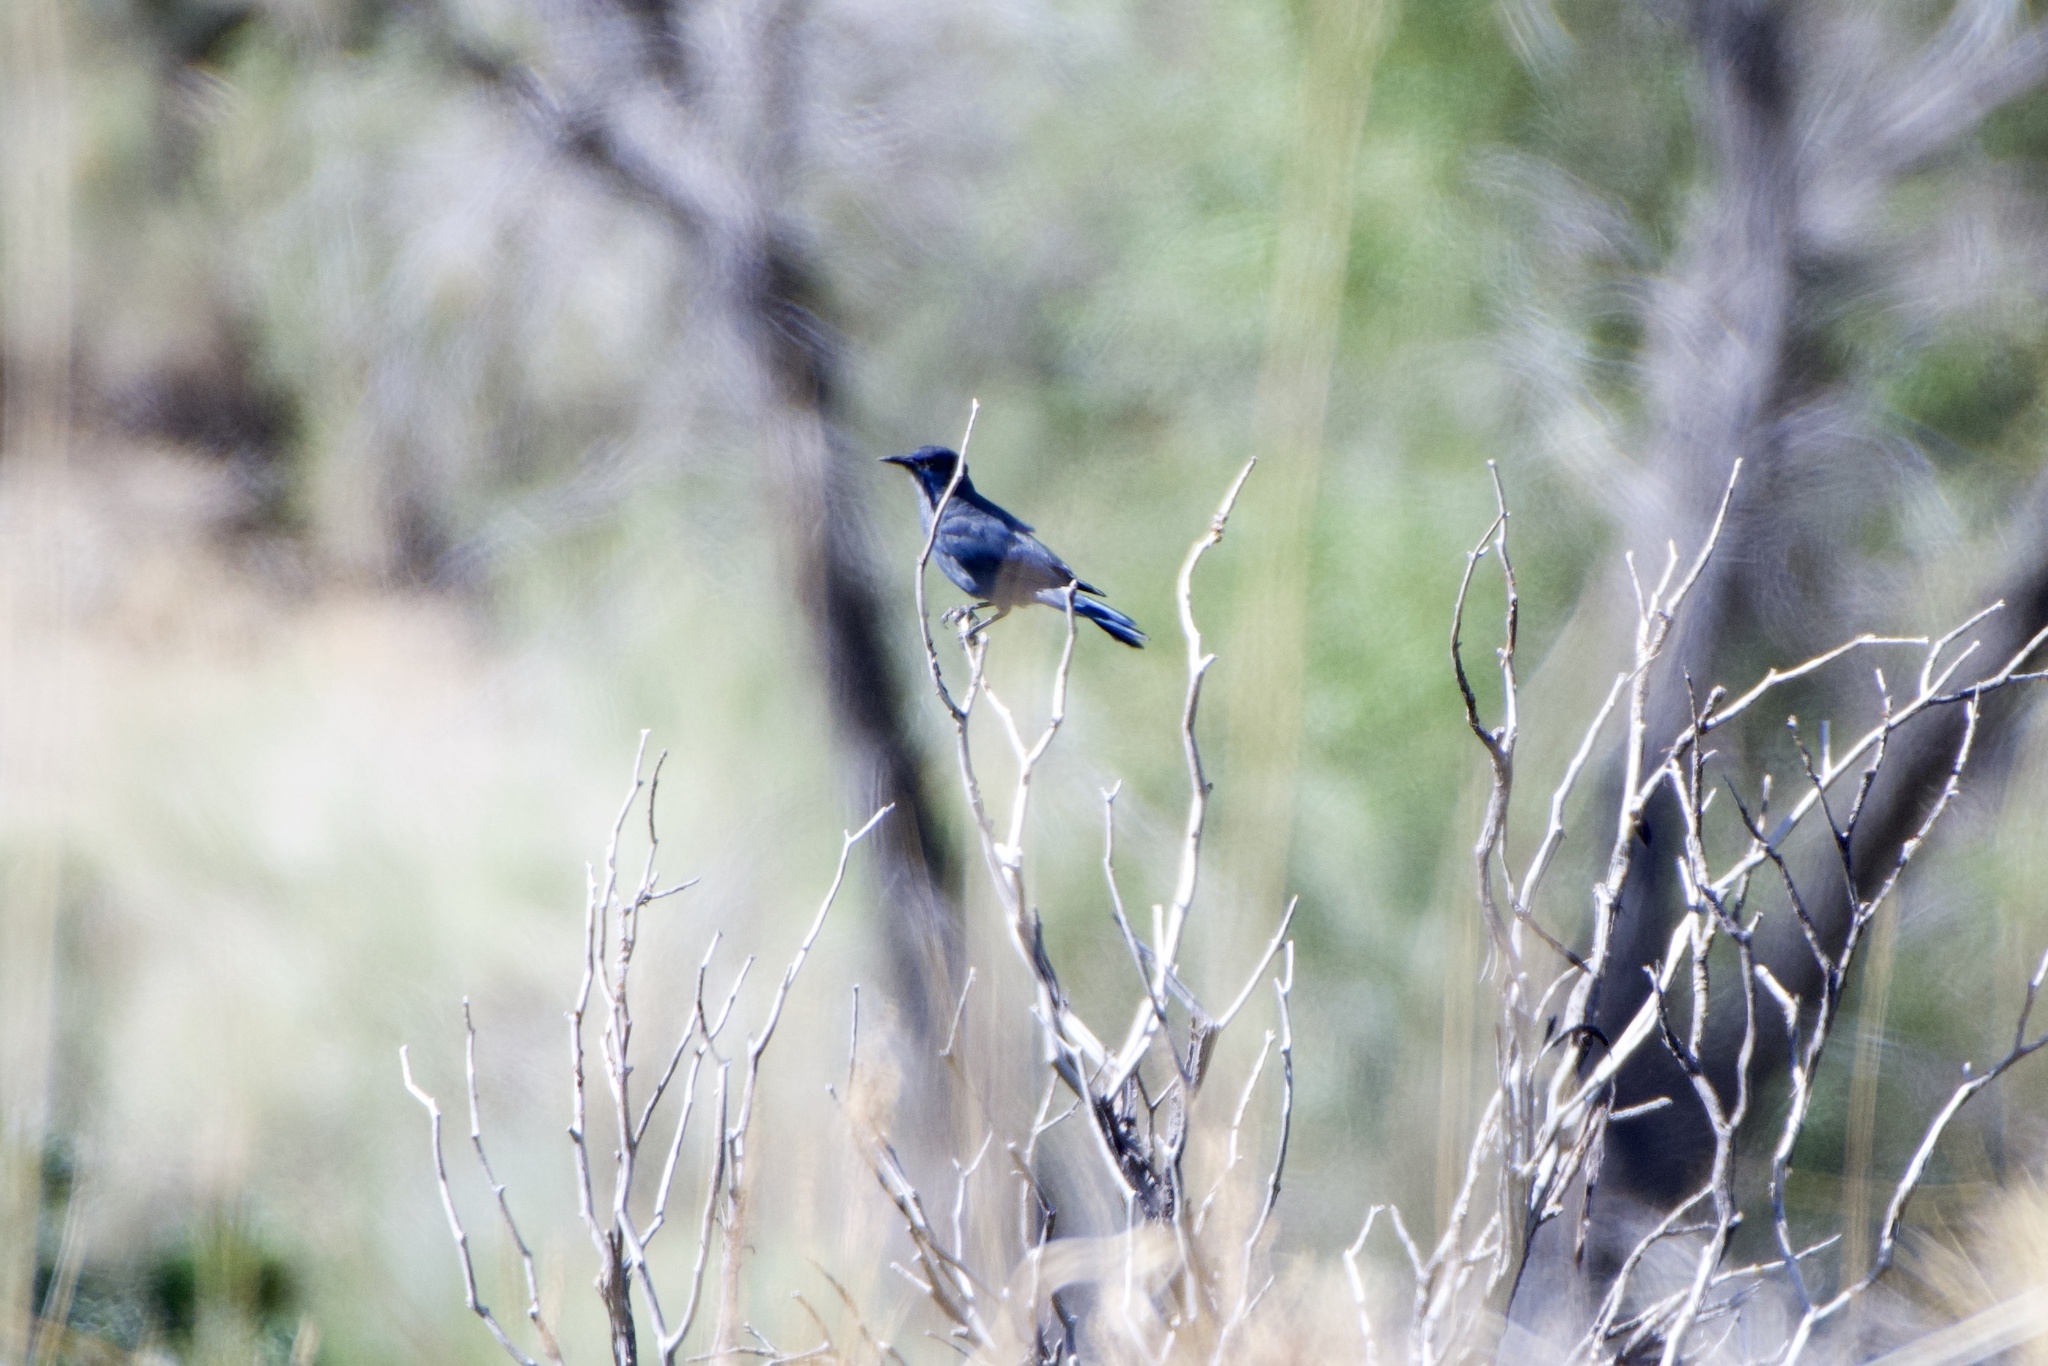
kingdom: Animalia
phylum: Chordata
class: Aves
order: Passeriformes
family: Corvidae
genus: Gymnorhinus
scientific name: Gymnorhinus cyanocephalus
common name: Pinyon jay
